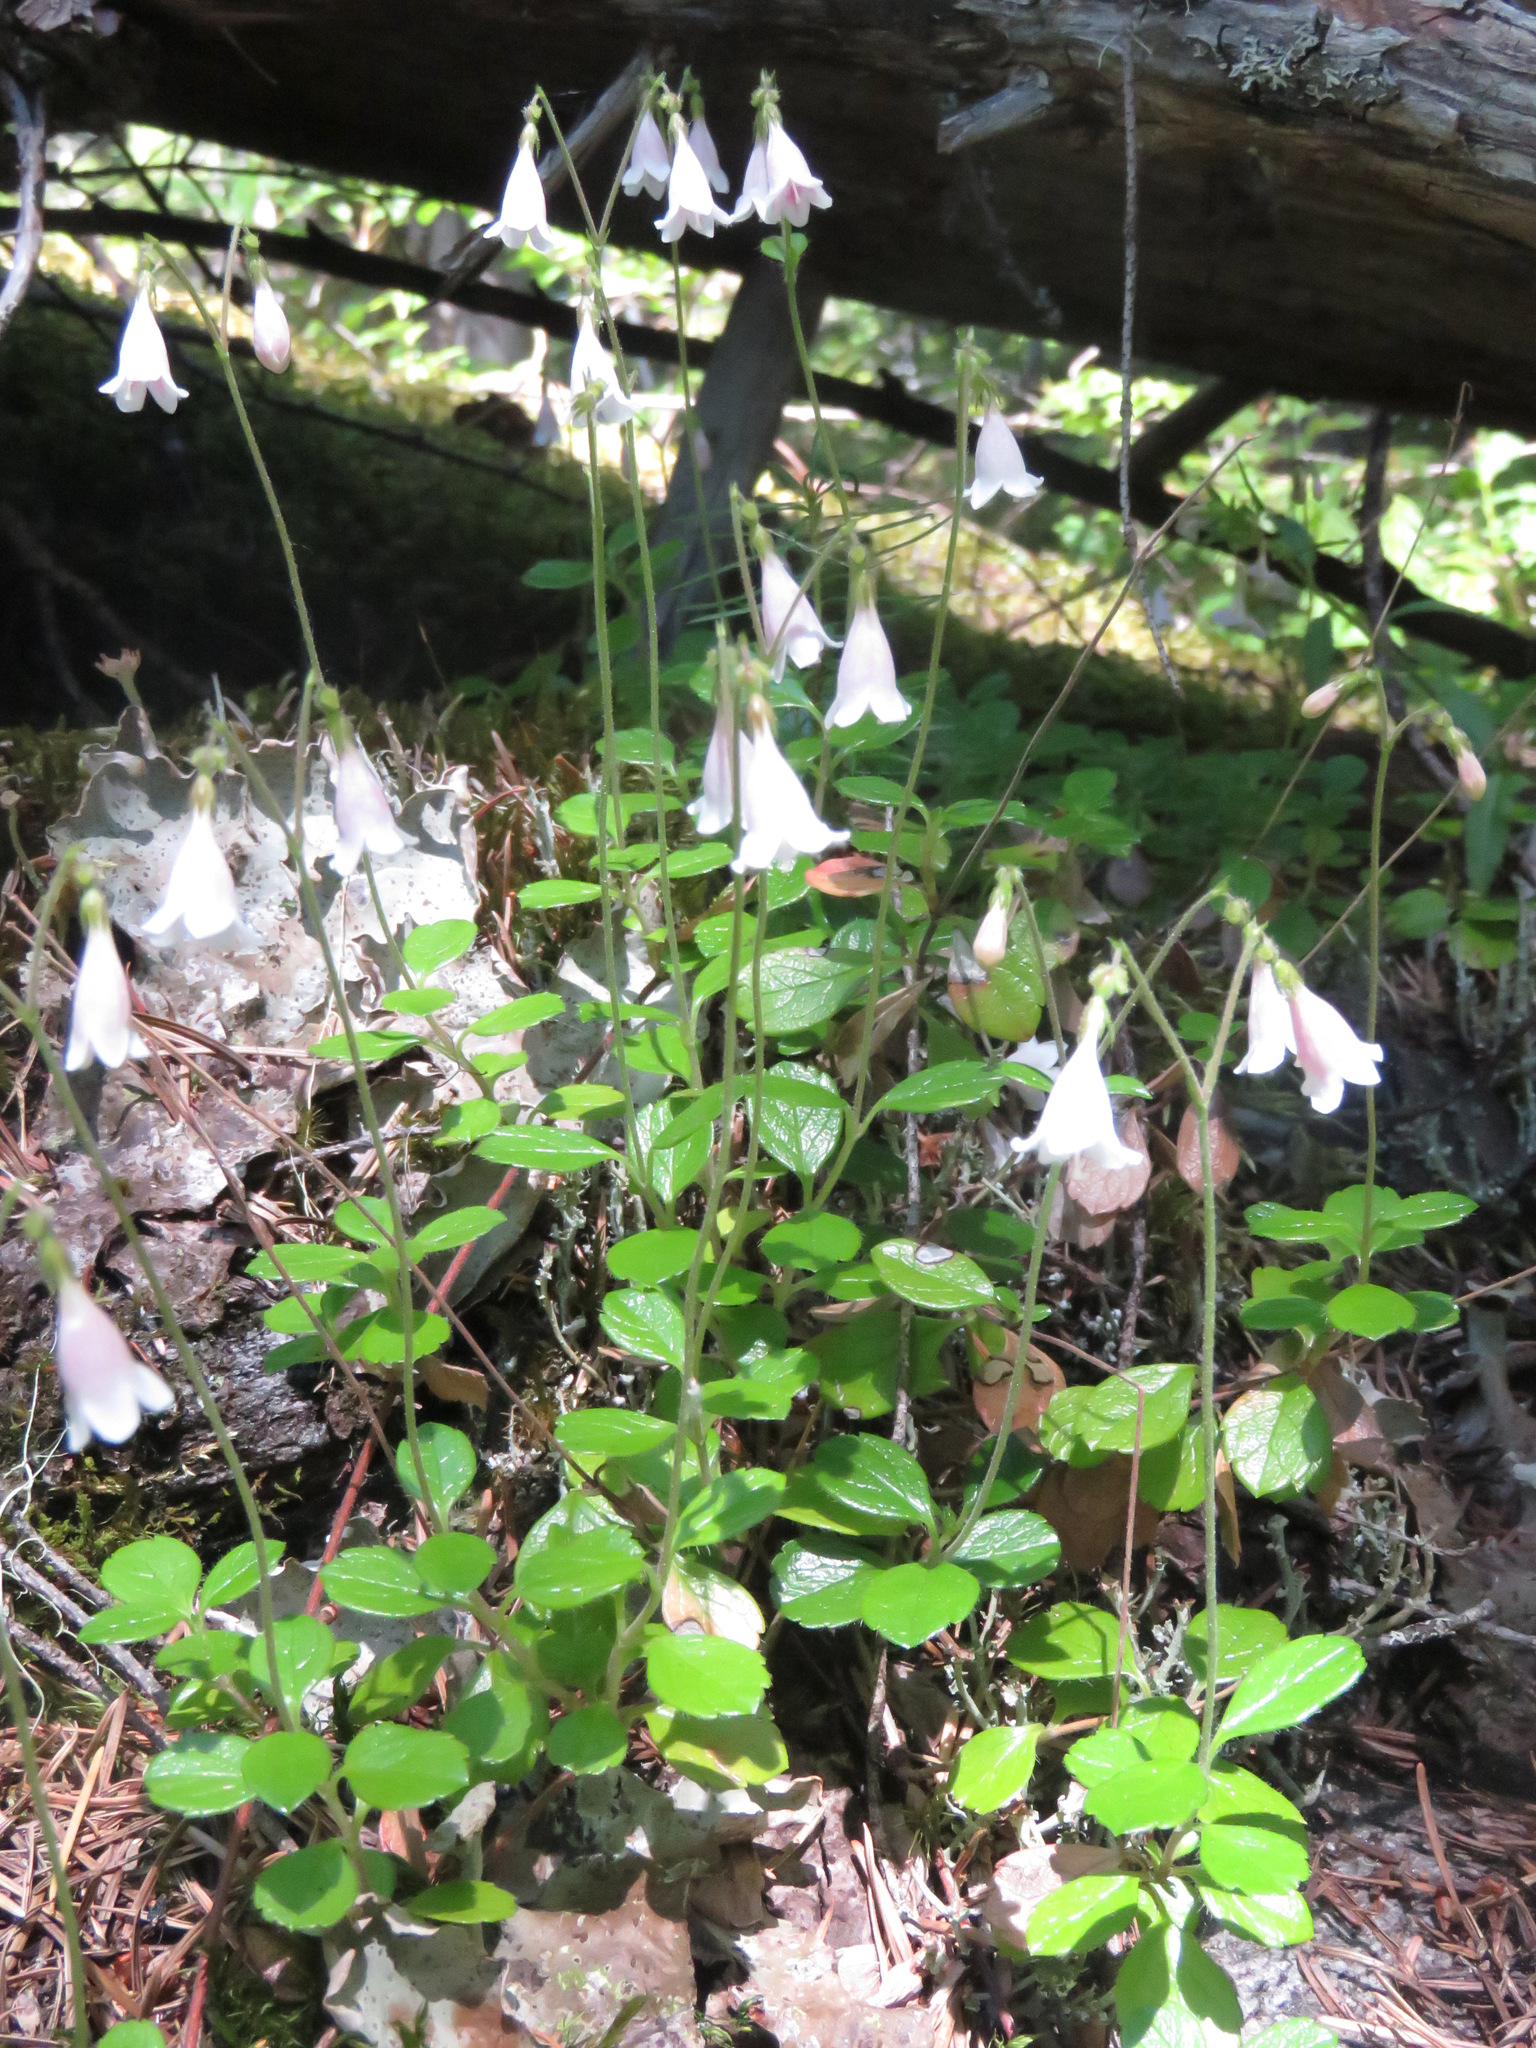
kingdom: Plantae
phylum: Tracheophyta
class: Magnoliopsida
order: Dipsacales
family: Caprifoliaceae
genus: Linnaea
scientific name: Linnaea borealis
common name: Twinflower
